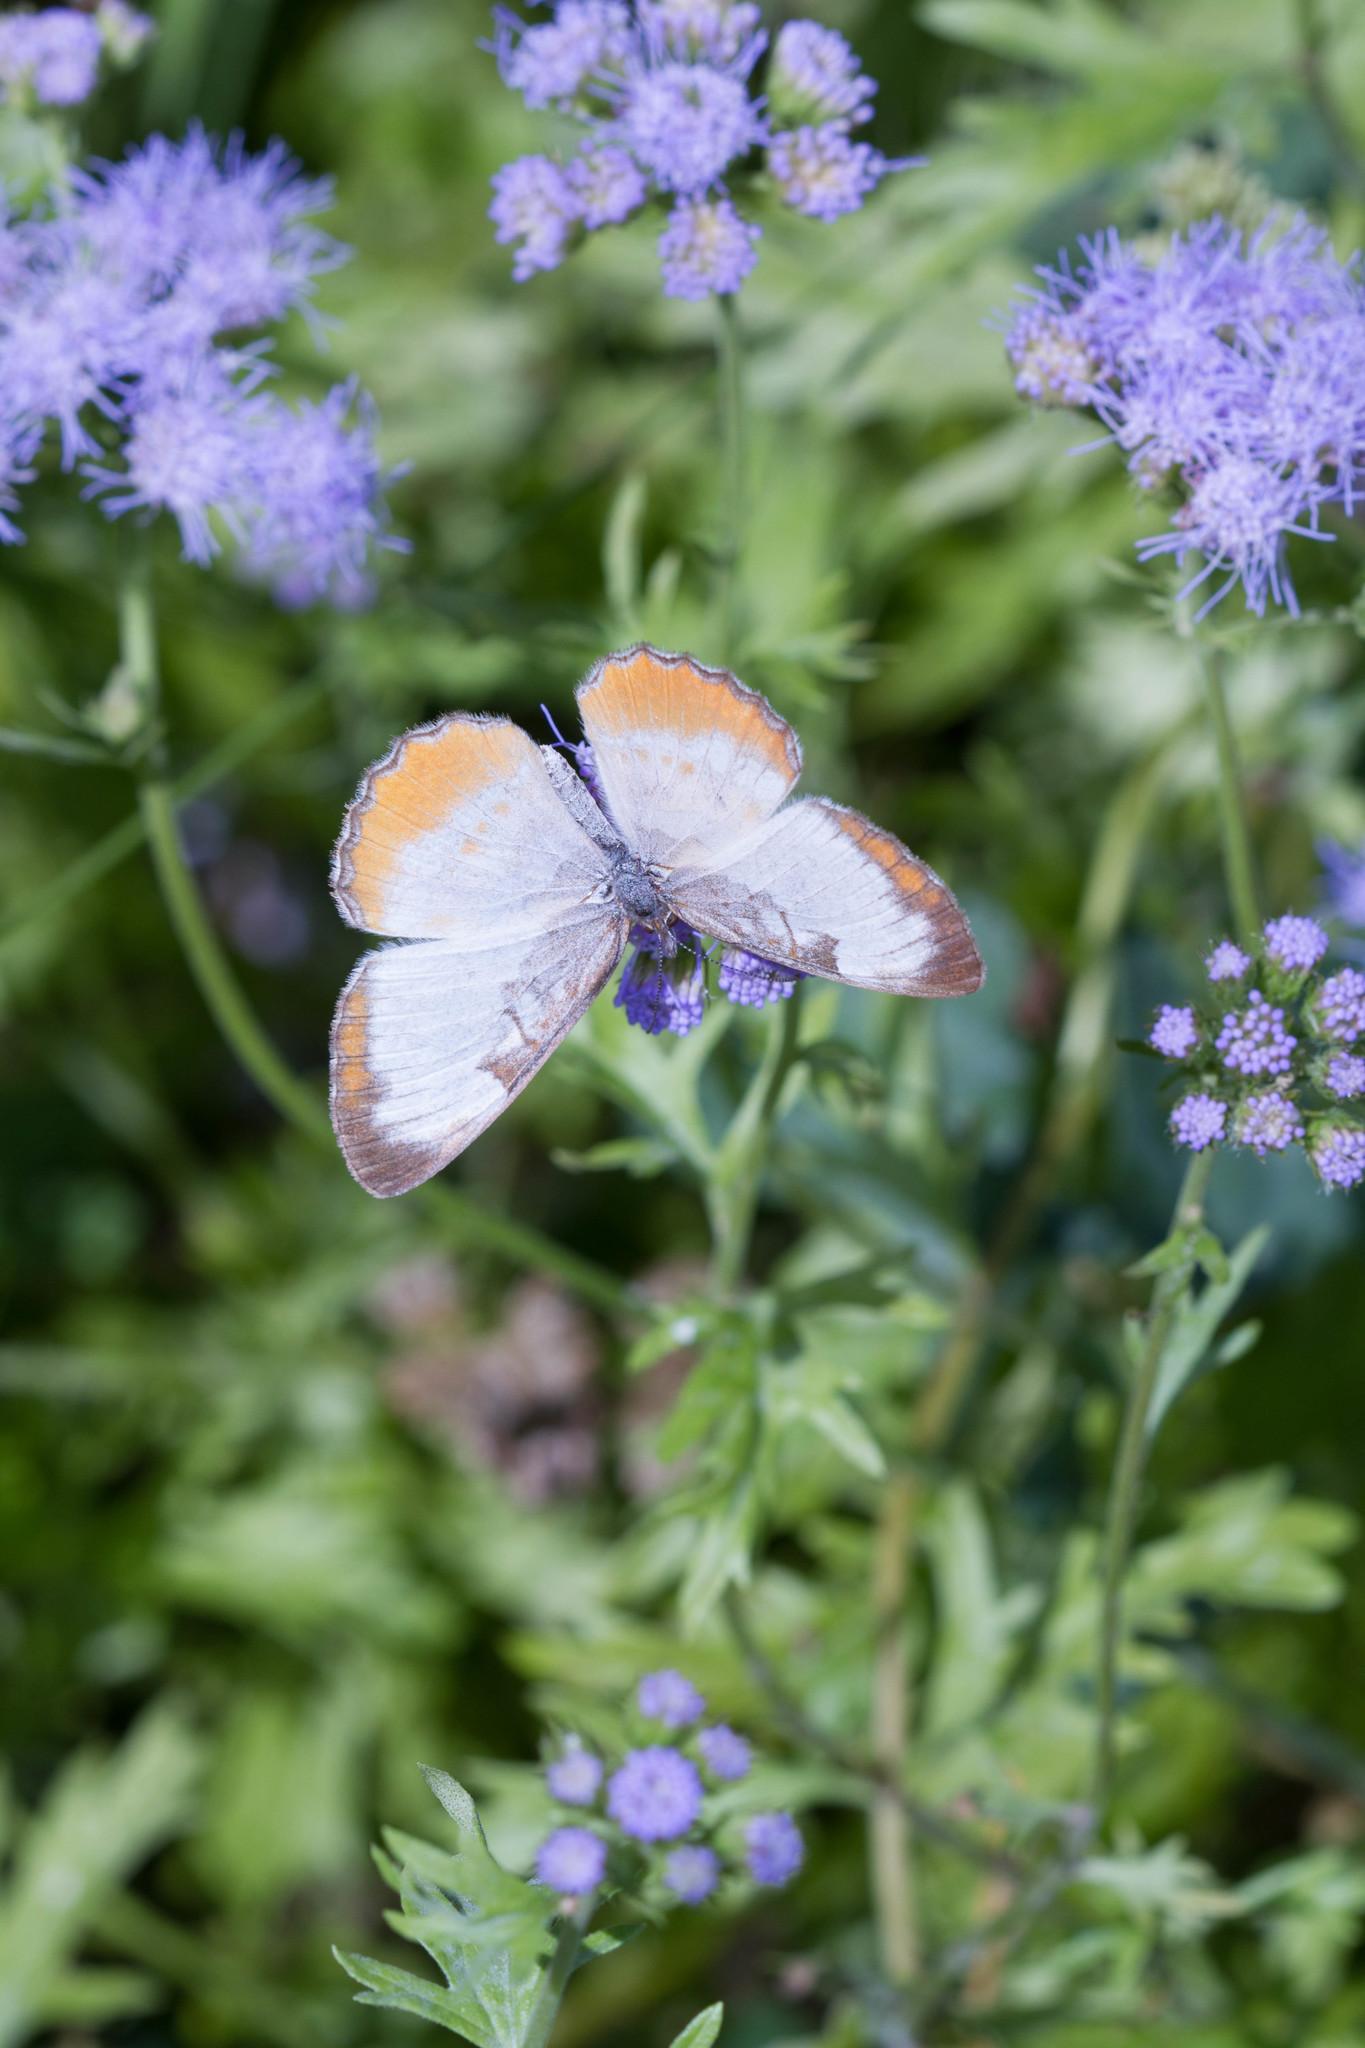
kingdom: Animalia
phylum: Arthropoda
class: Insecta
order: Lepidoptera
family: Nymphalidae
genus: Mestra
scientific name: Mestra amymone
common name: Common mestra
